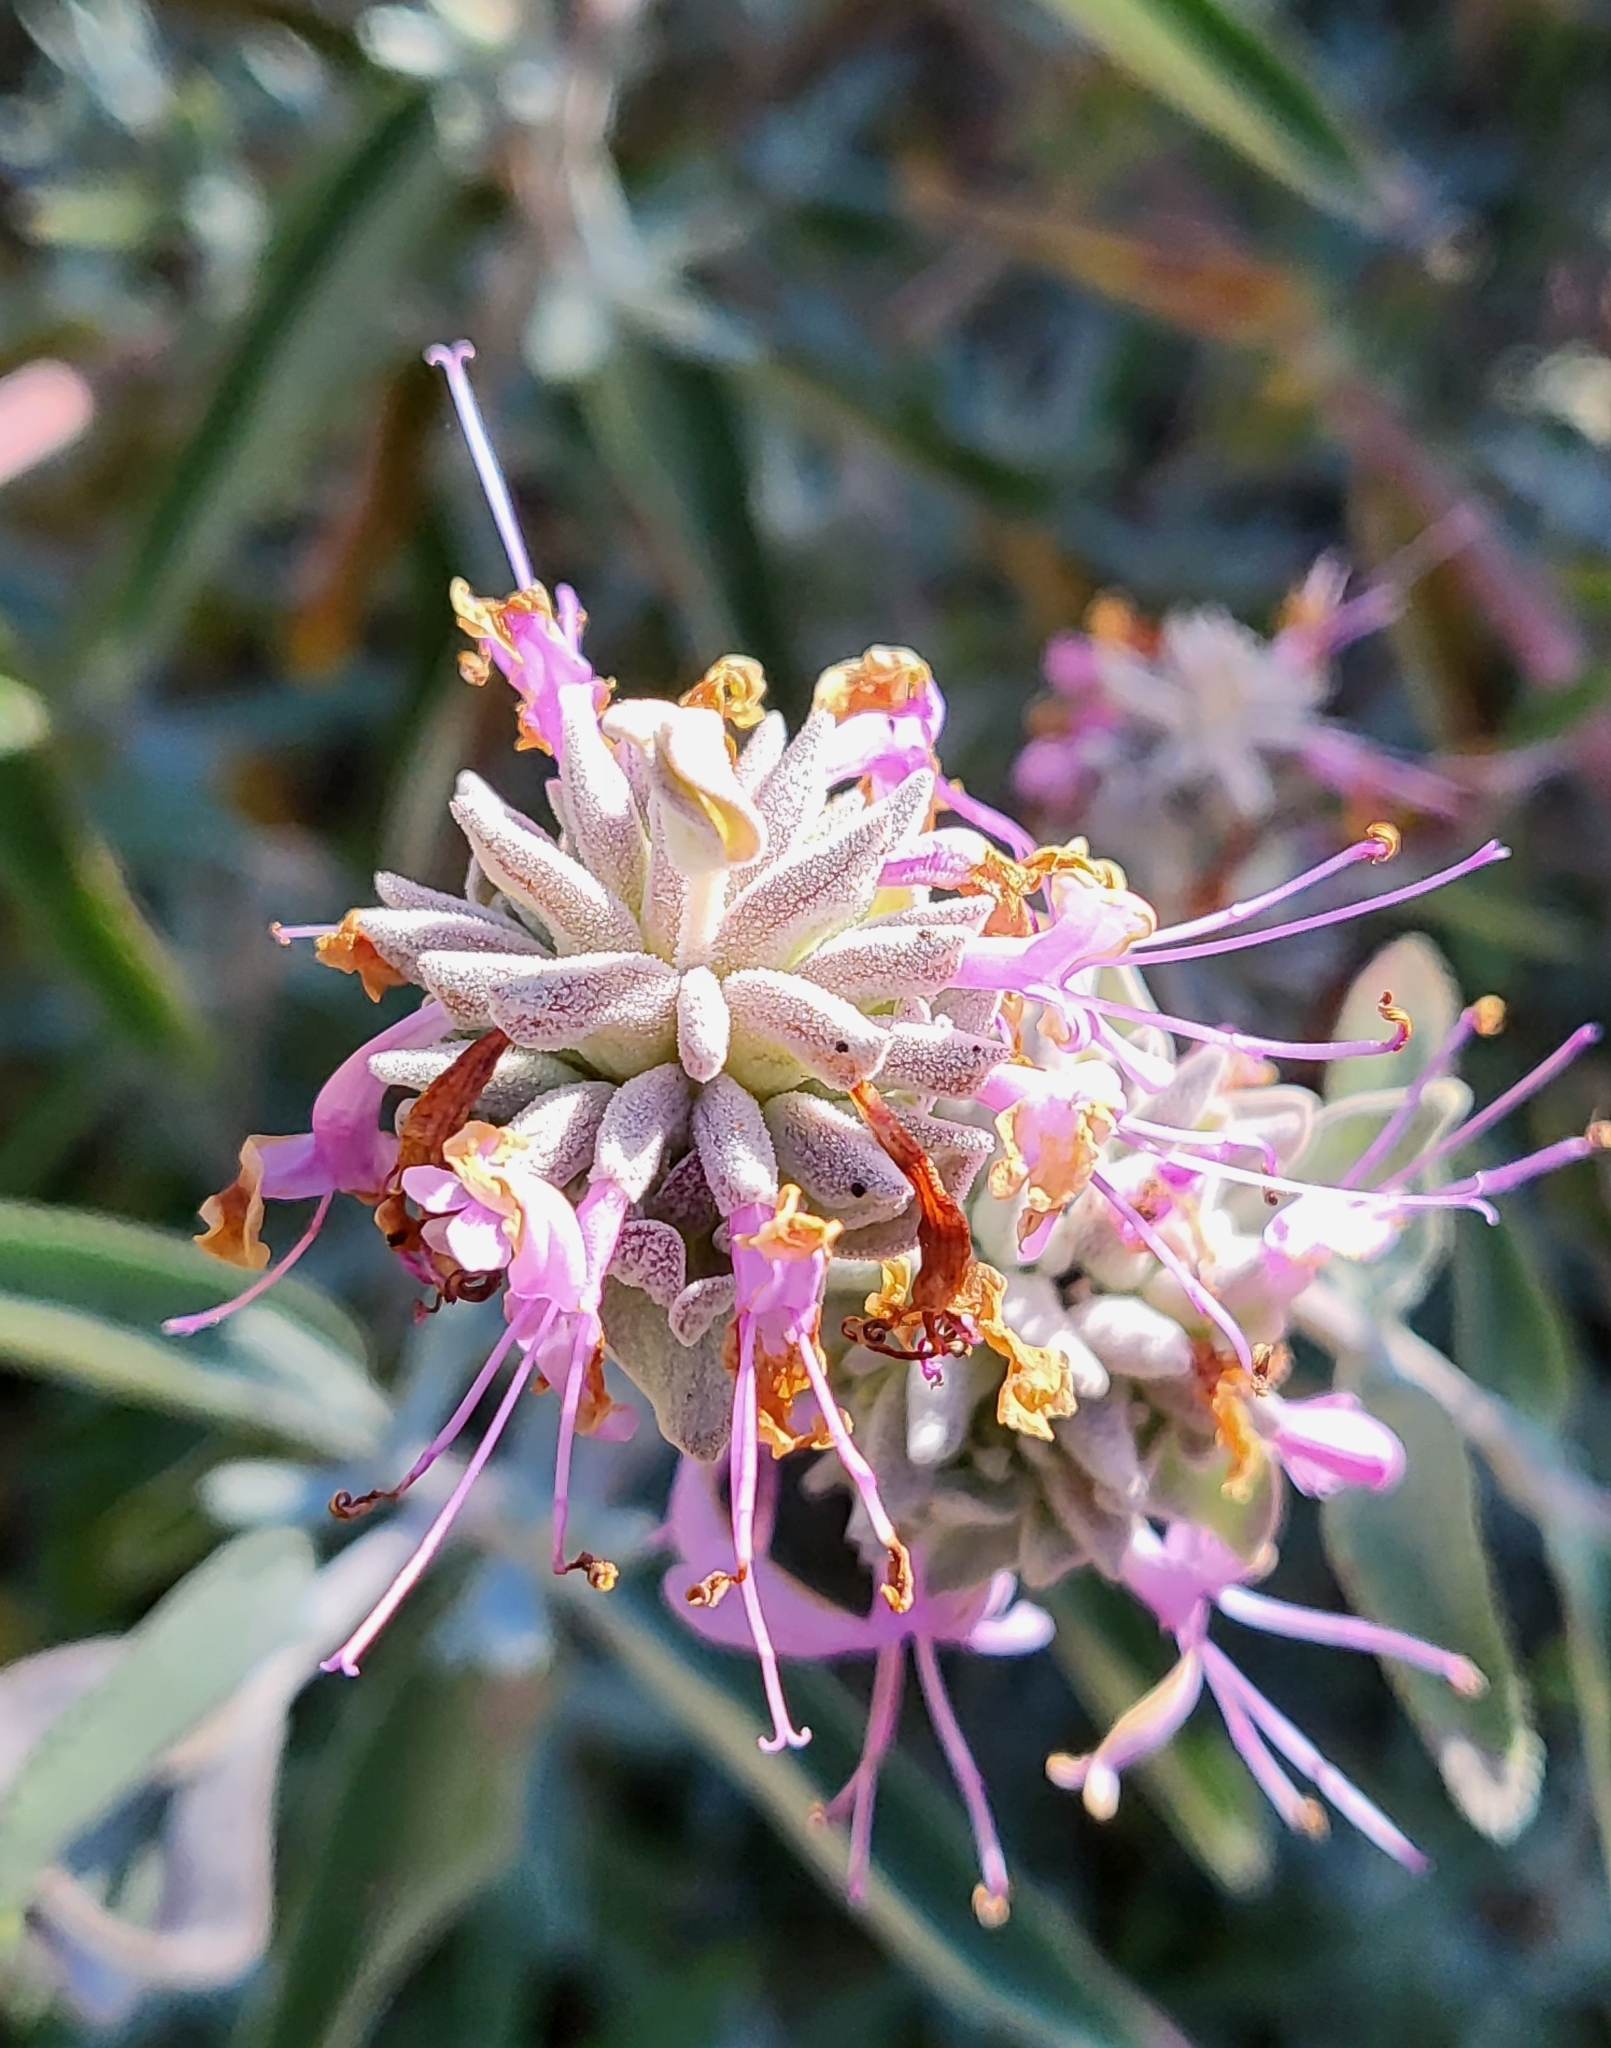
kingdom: Plantae
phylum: Tracheophyta
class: Magnoliopsida
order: Lamiales
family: Lamiaceae
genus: Salvia
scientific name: Salvia leucophylla
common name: Purple sage
